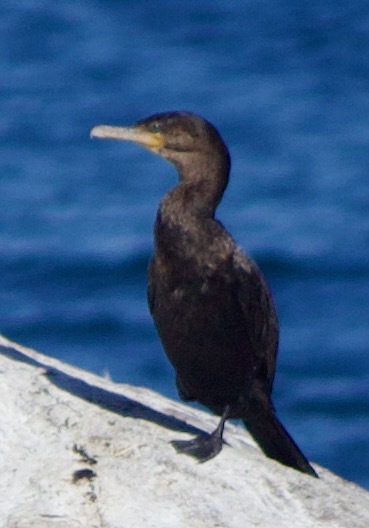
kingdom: Animalia
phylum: Chordata
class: Aves
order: Suliformes
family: Phalacrocoracidae
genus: Phalacrocorax
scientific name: Phalacrocorax brasilianus
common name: Neotropic cormorant
